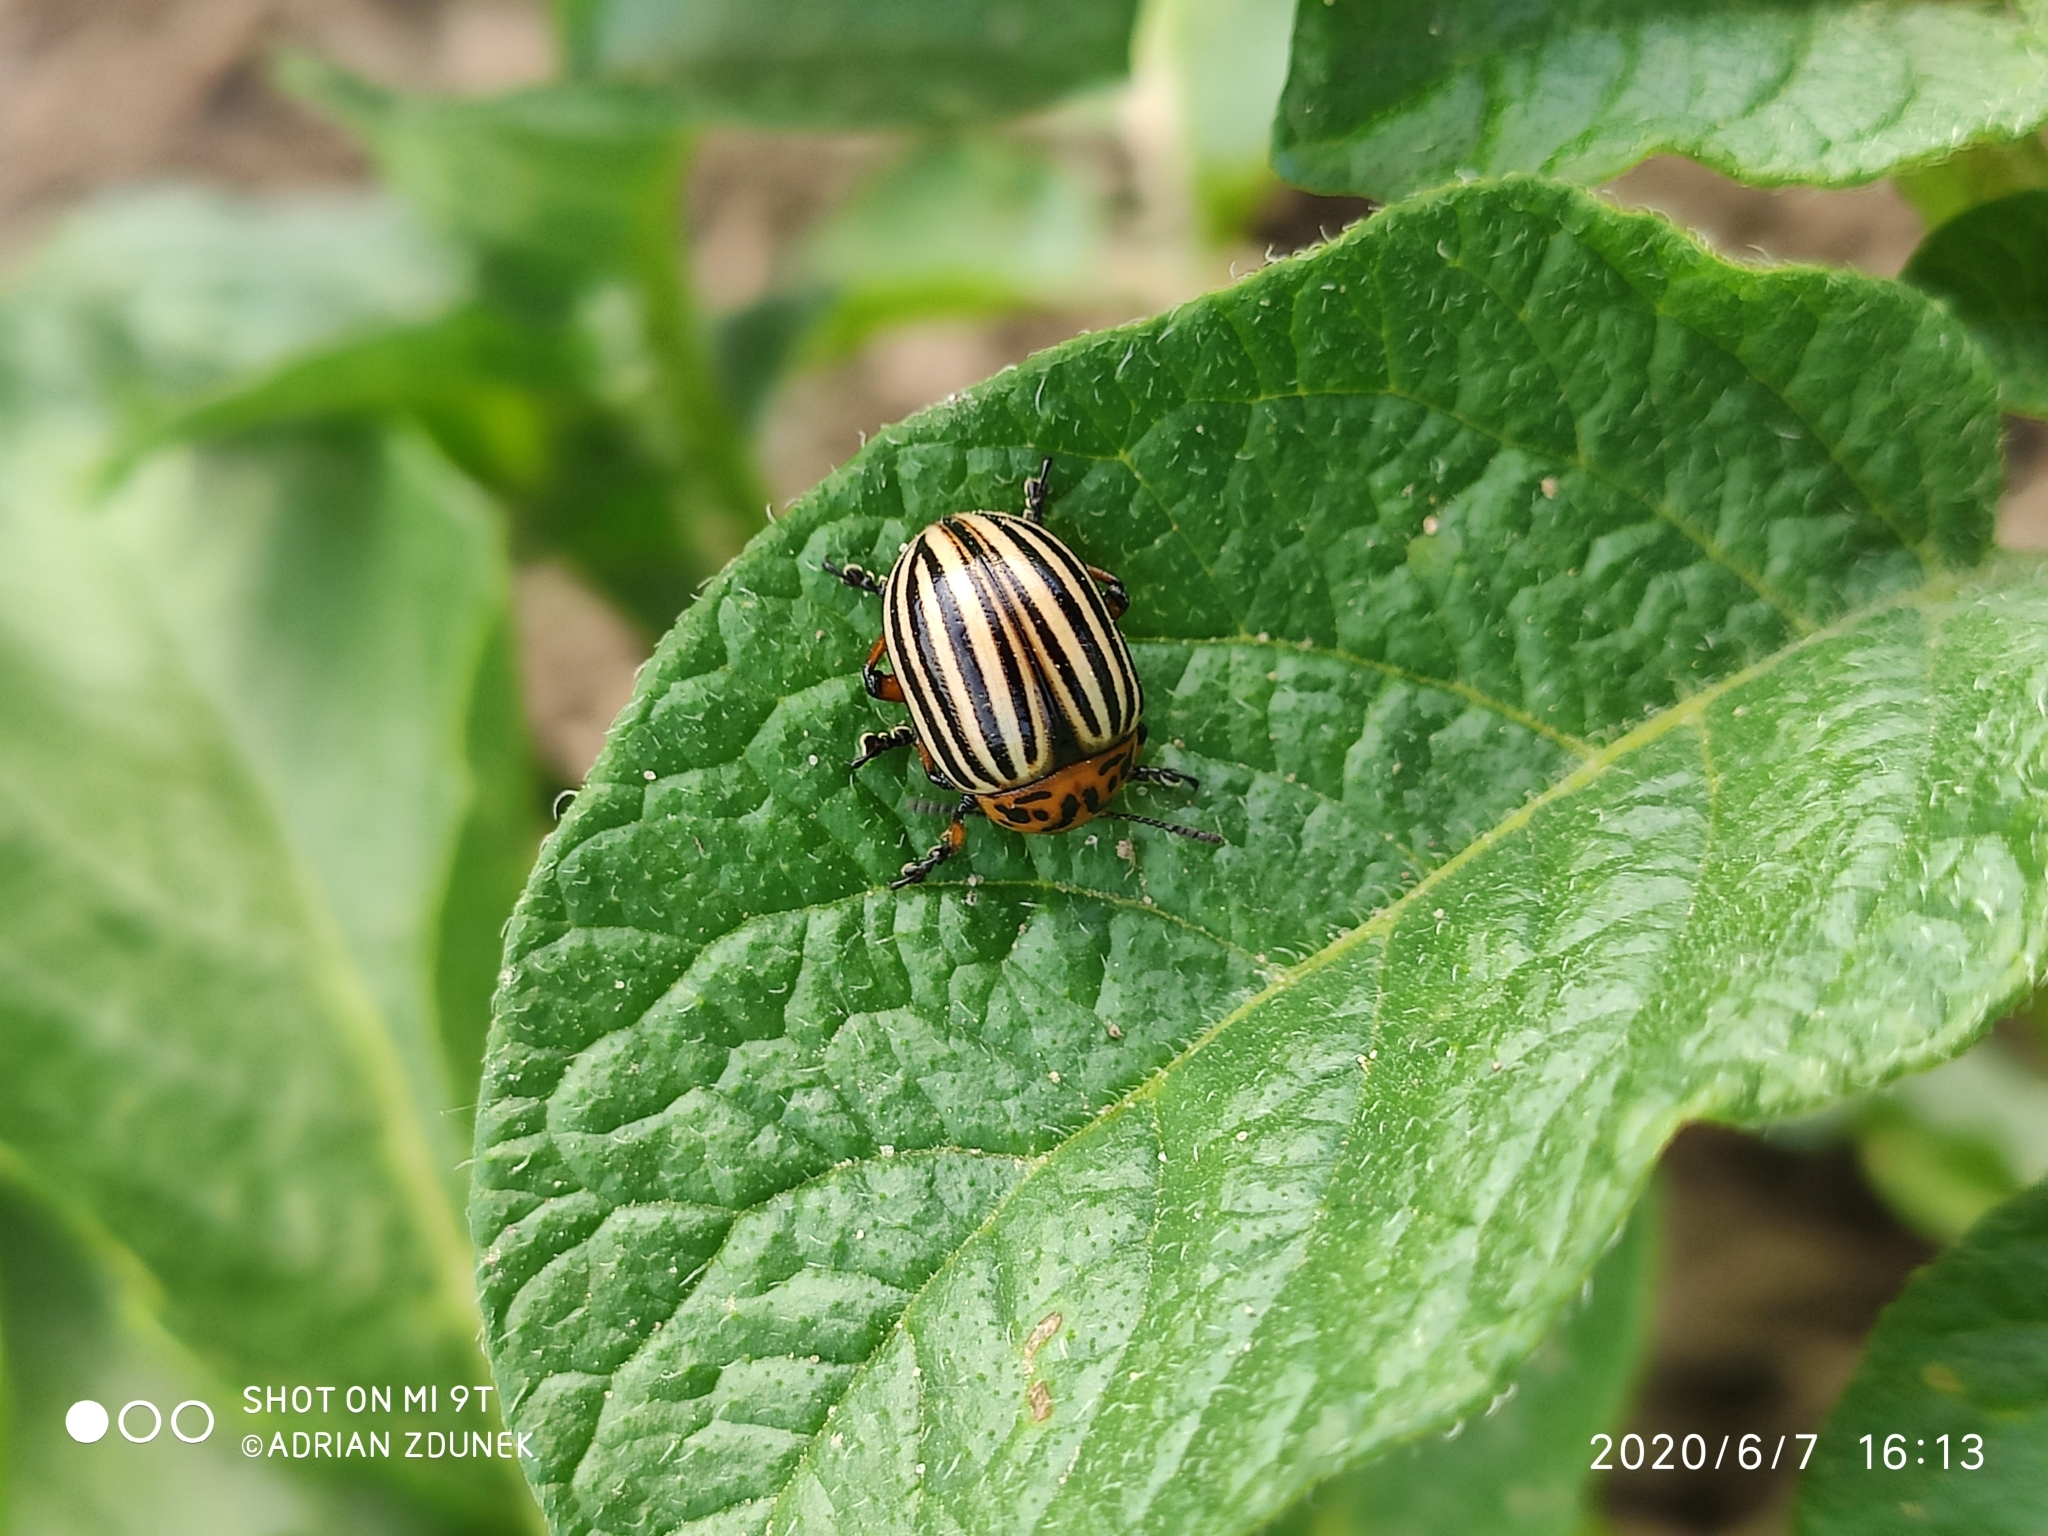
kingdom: Animalia
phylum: Arthropoda
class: Insecta
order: Coleoptera
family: Chrysomelidae
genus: Leptinotarsa
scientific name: Leptinotarsa decemlineata
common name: Colorado potato beetle
